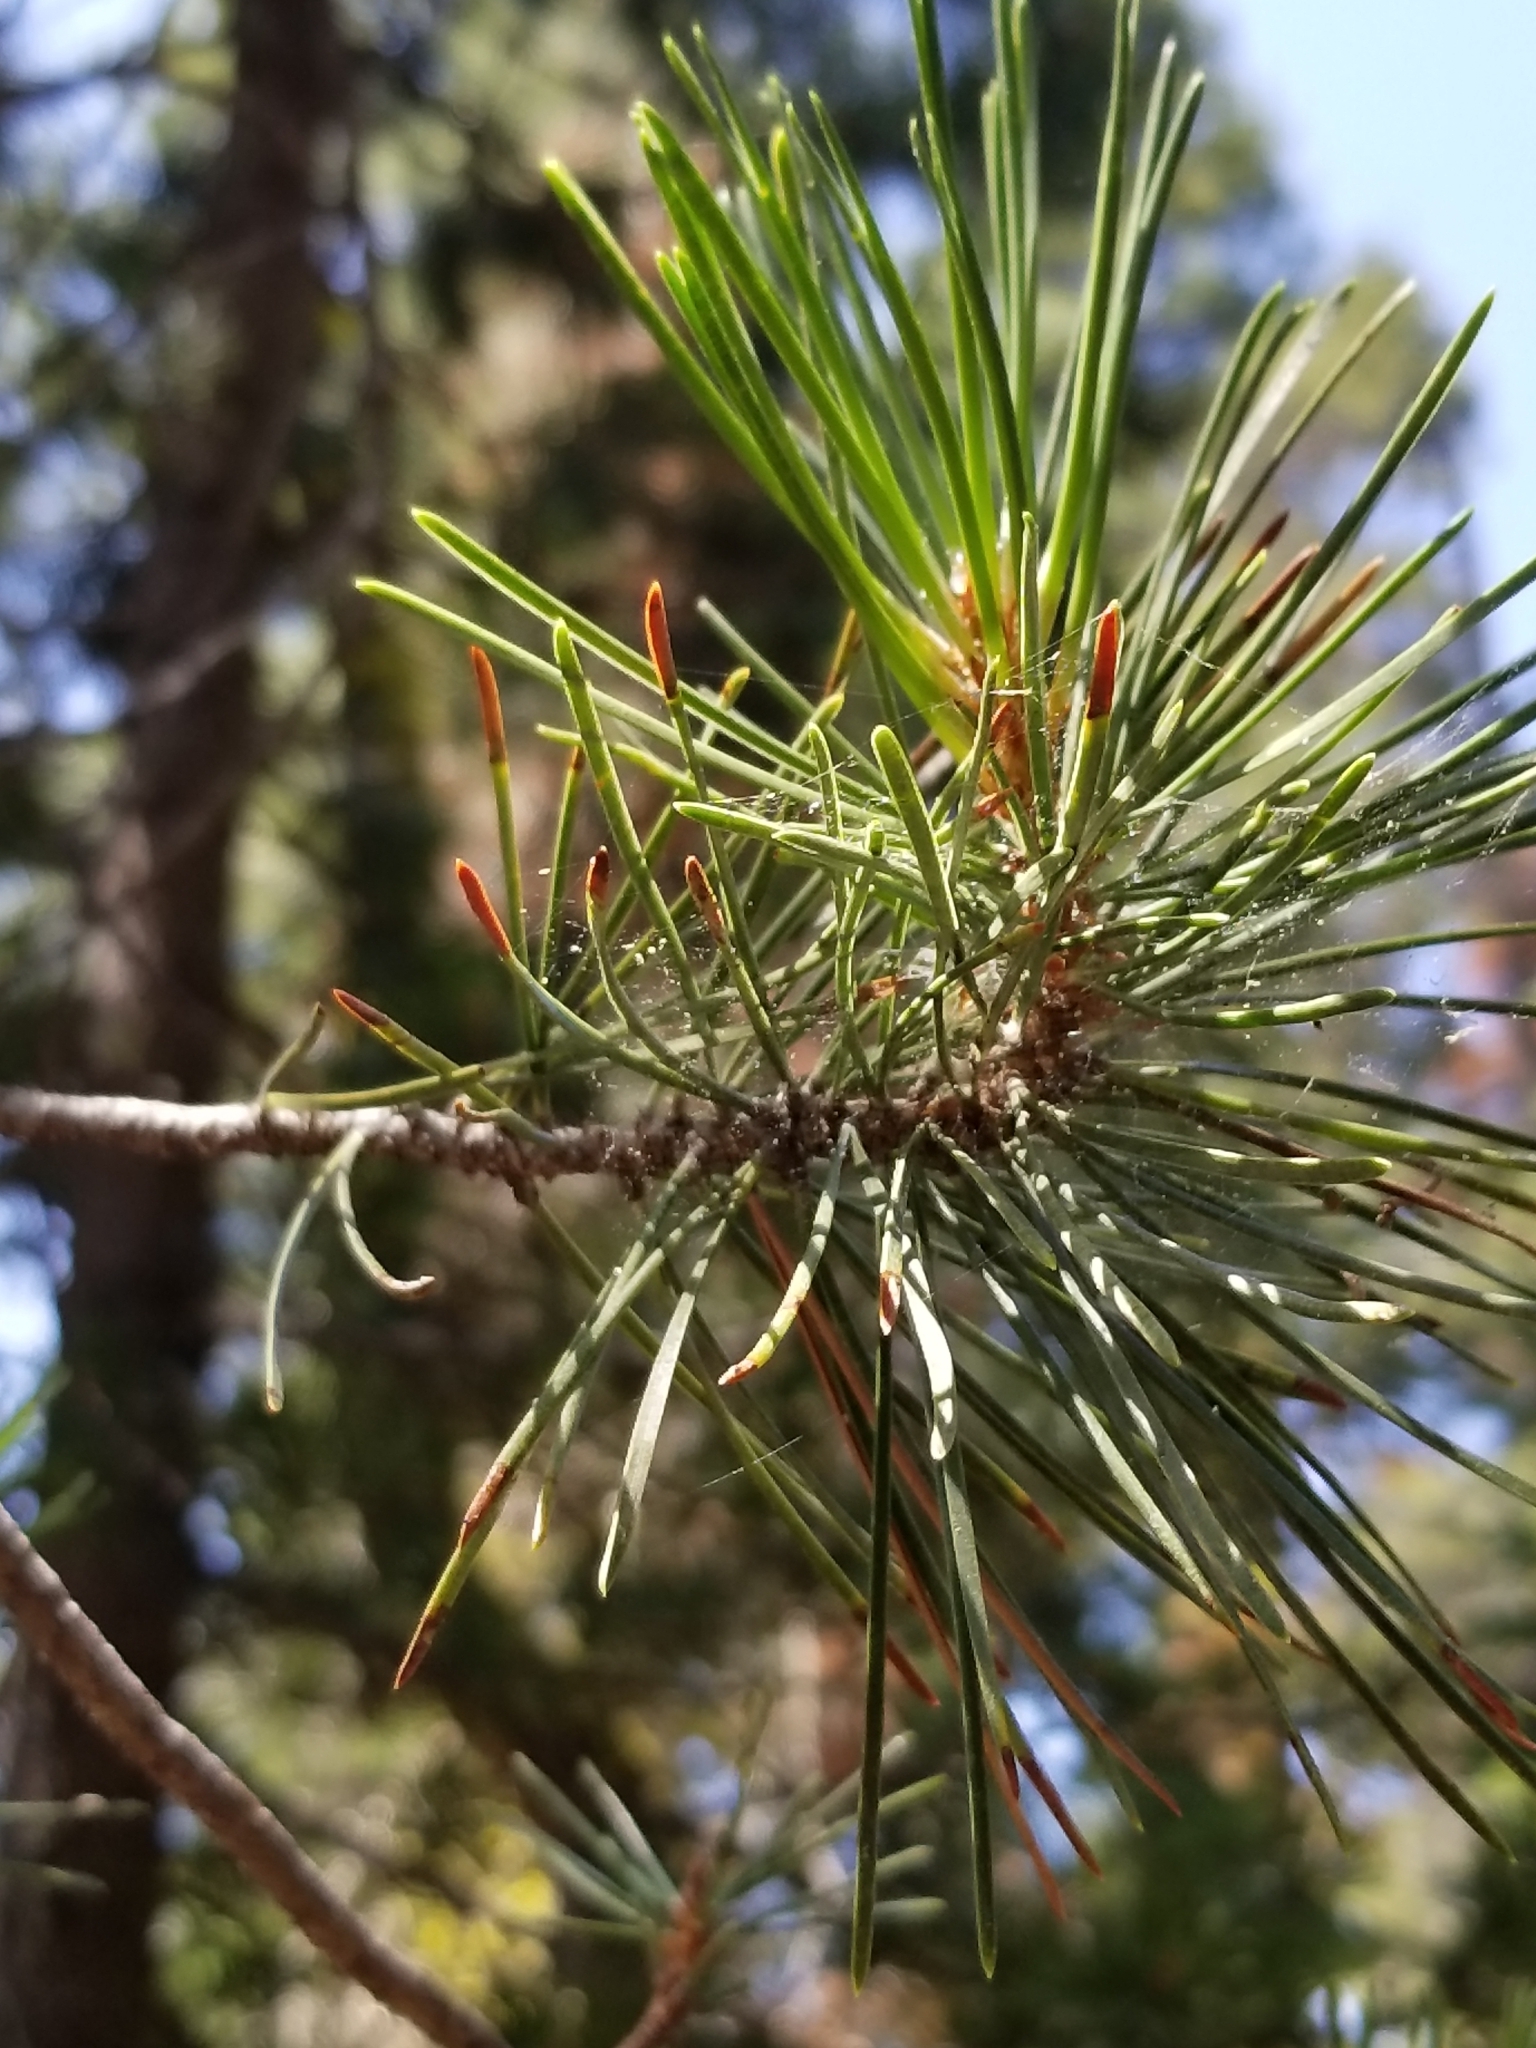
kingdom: Plantae
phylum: Tracheophyta
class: Pinopsida
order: Pinales
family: Pinaceae
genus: Pinus
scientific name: Pinus contorta
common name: Lodgepole pine
